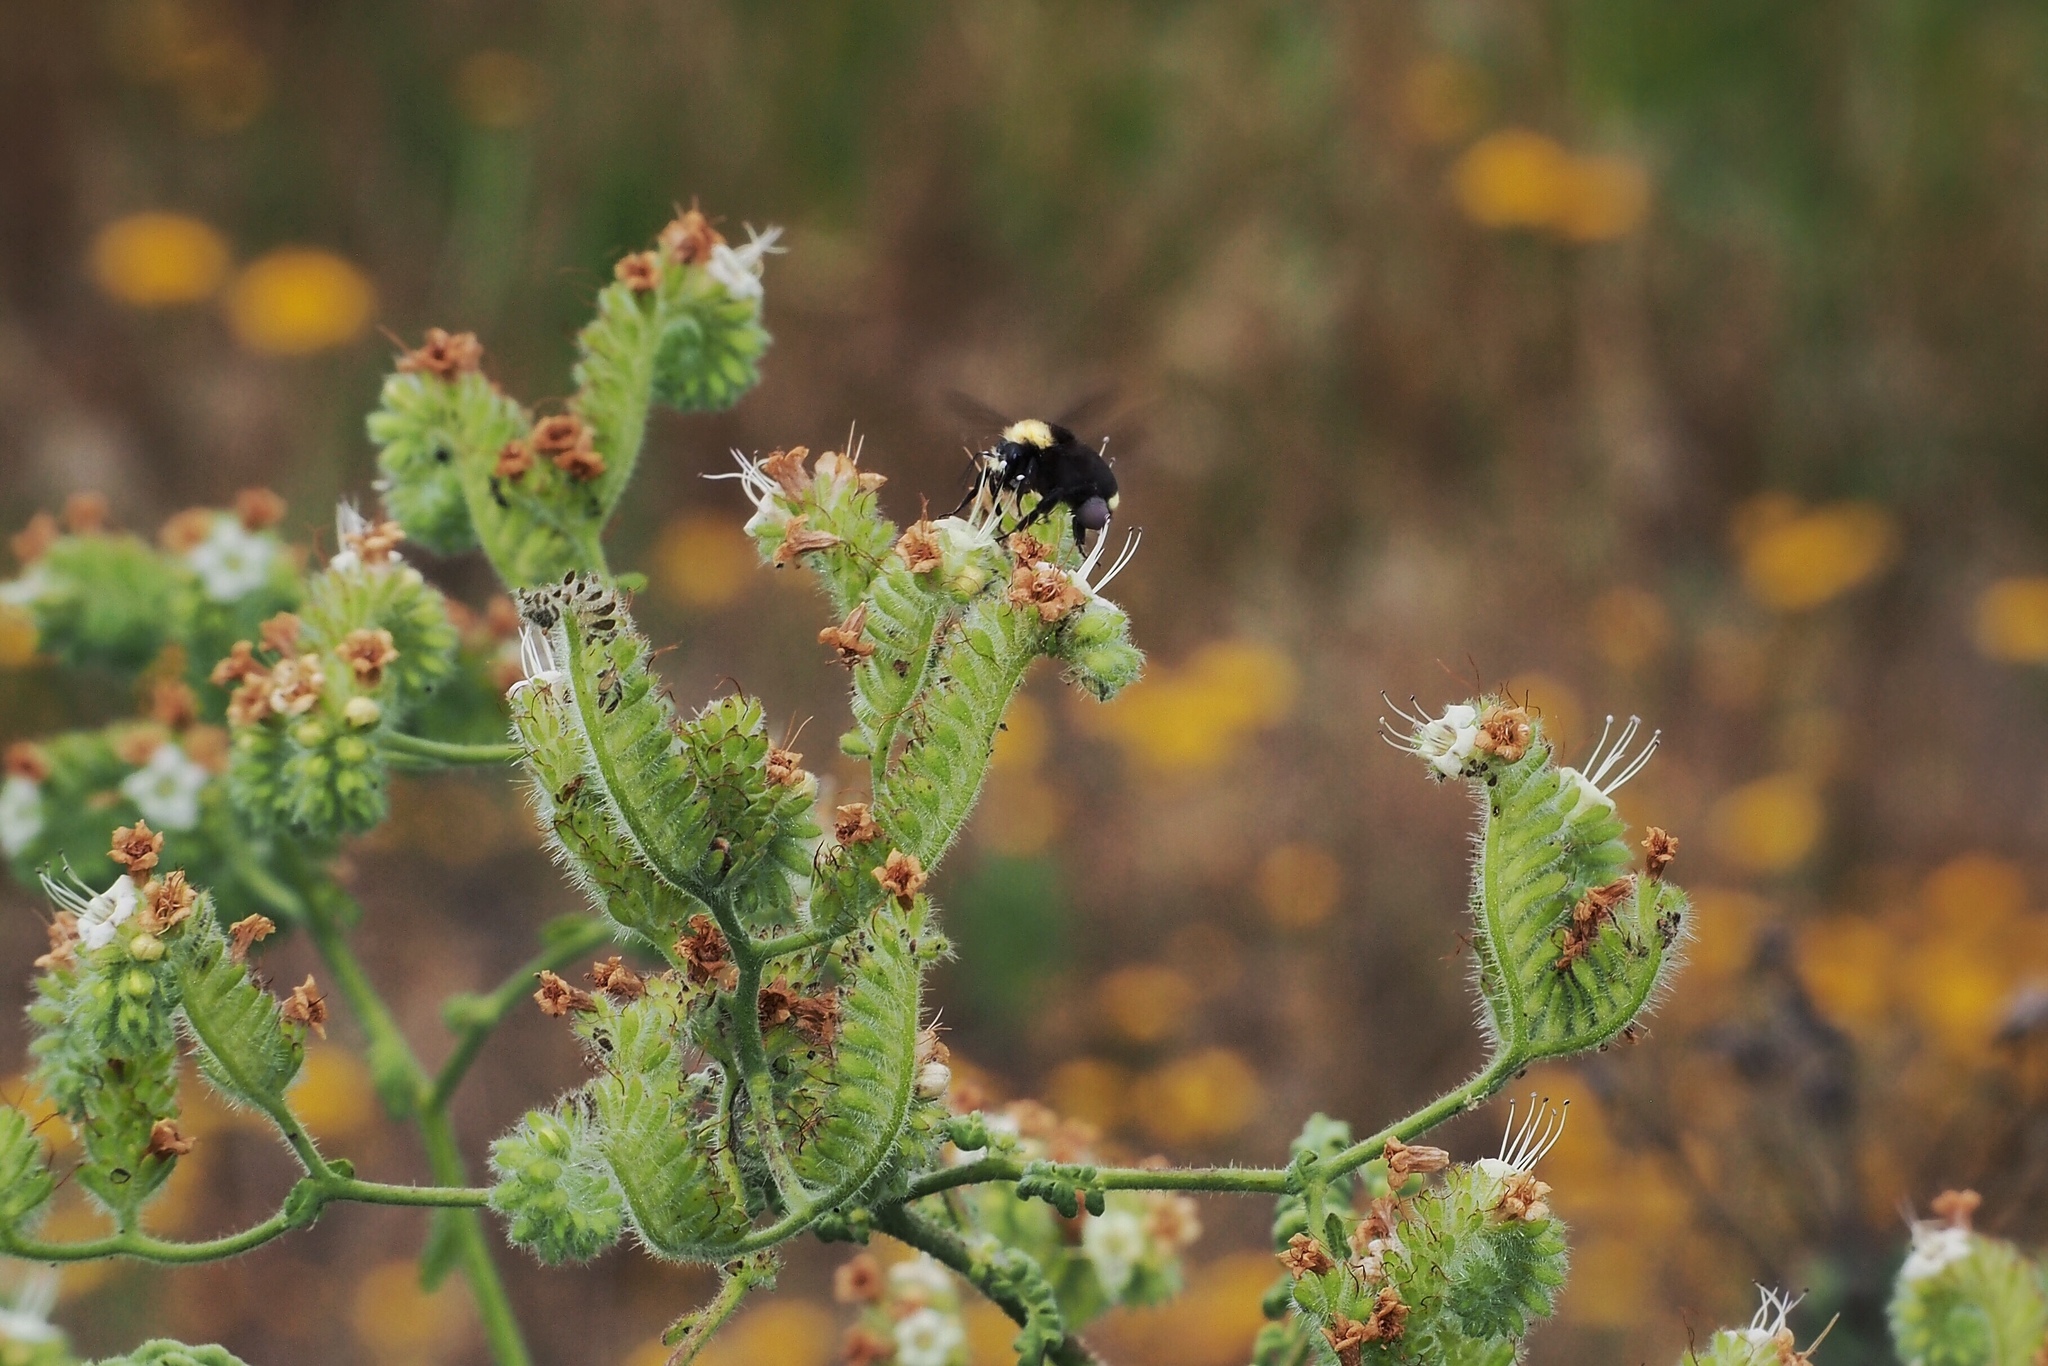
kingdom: Animalia
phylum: Arthropoda
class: Insecta
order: Hymenoptera
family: Apidae
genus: Bombus
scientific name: Bombus vosnesenskii
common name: Vosnesensky bumble bee
